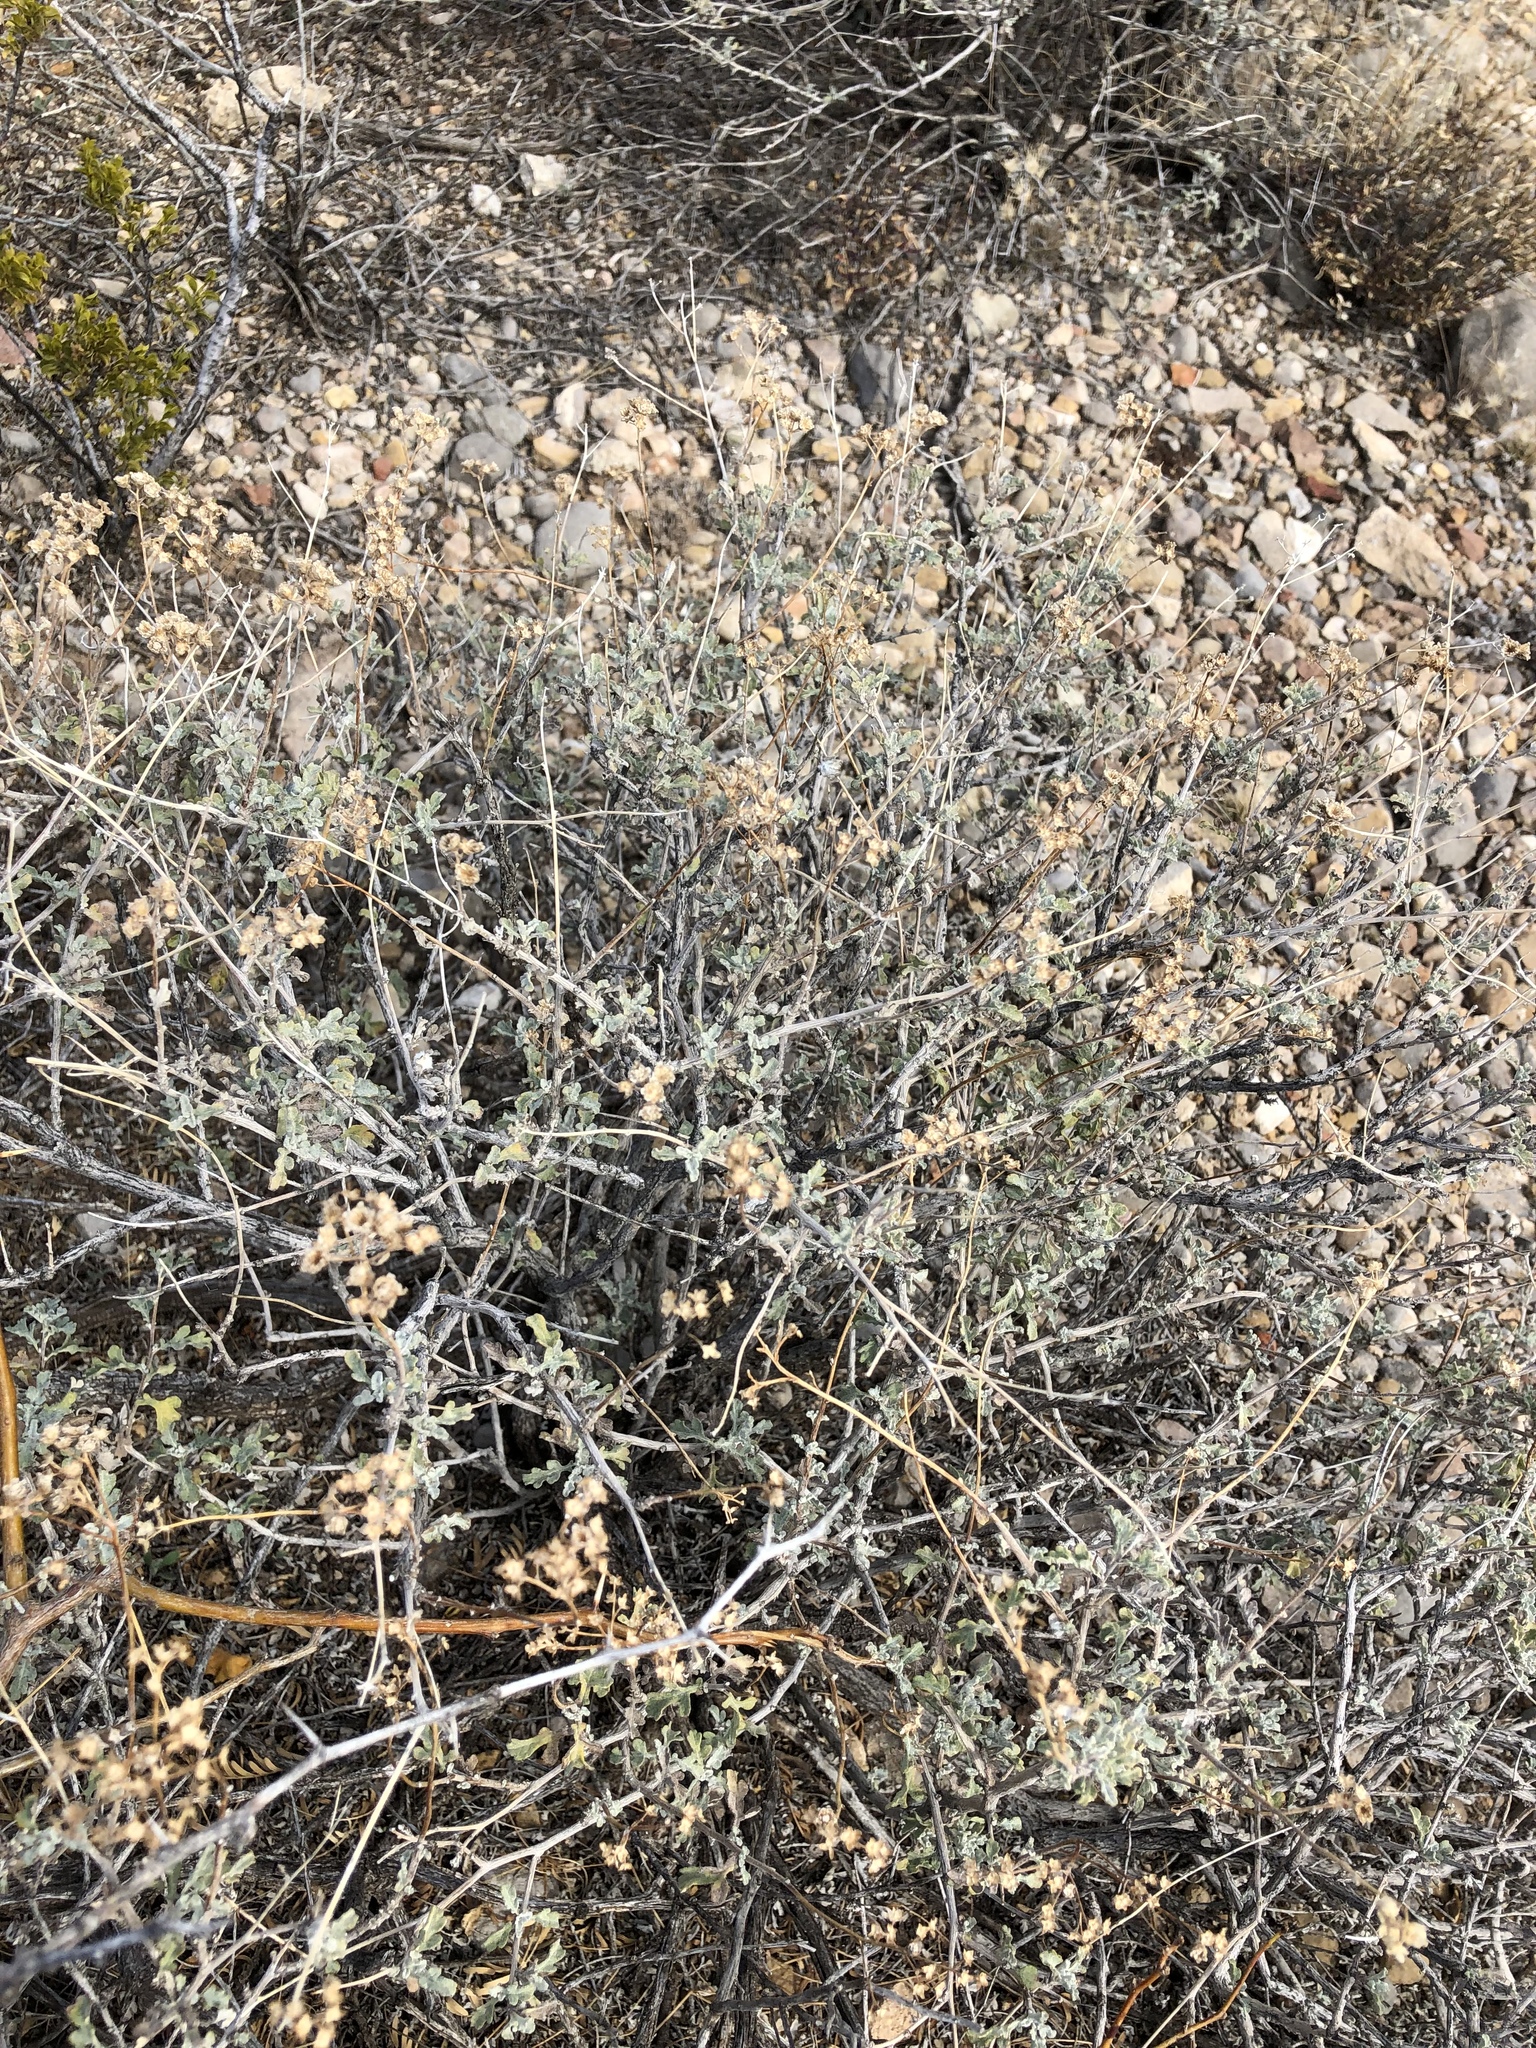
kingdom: Plantae
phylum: Tracheophyta
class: Magnoliopsida
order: Asterales
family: Asteraceae
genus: Parthenium
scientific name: Parthenium incanum
